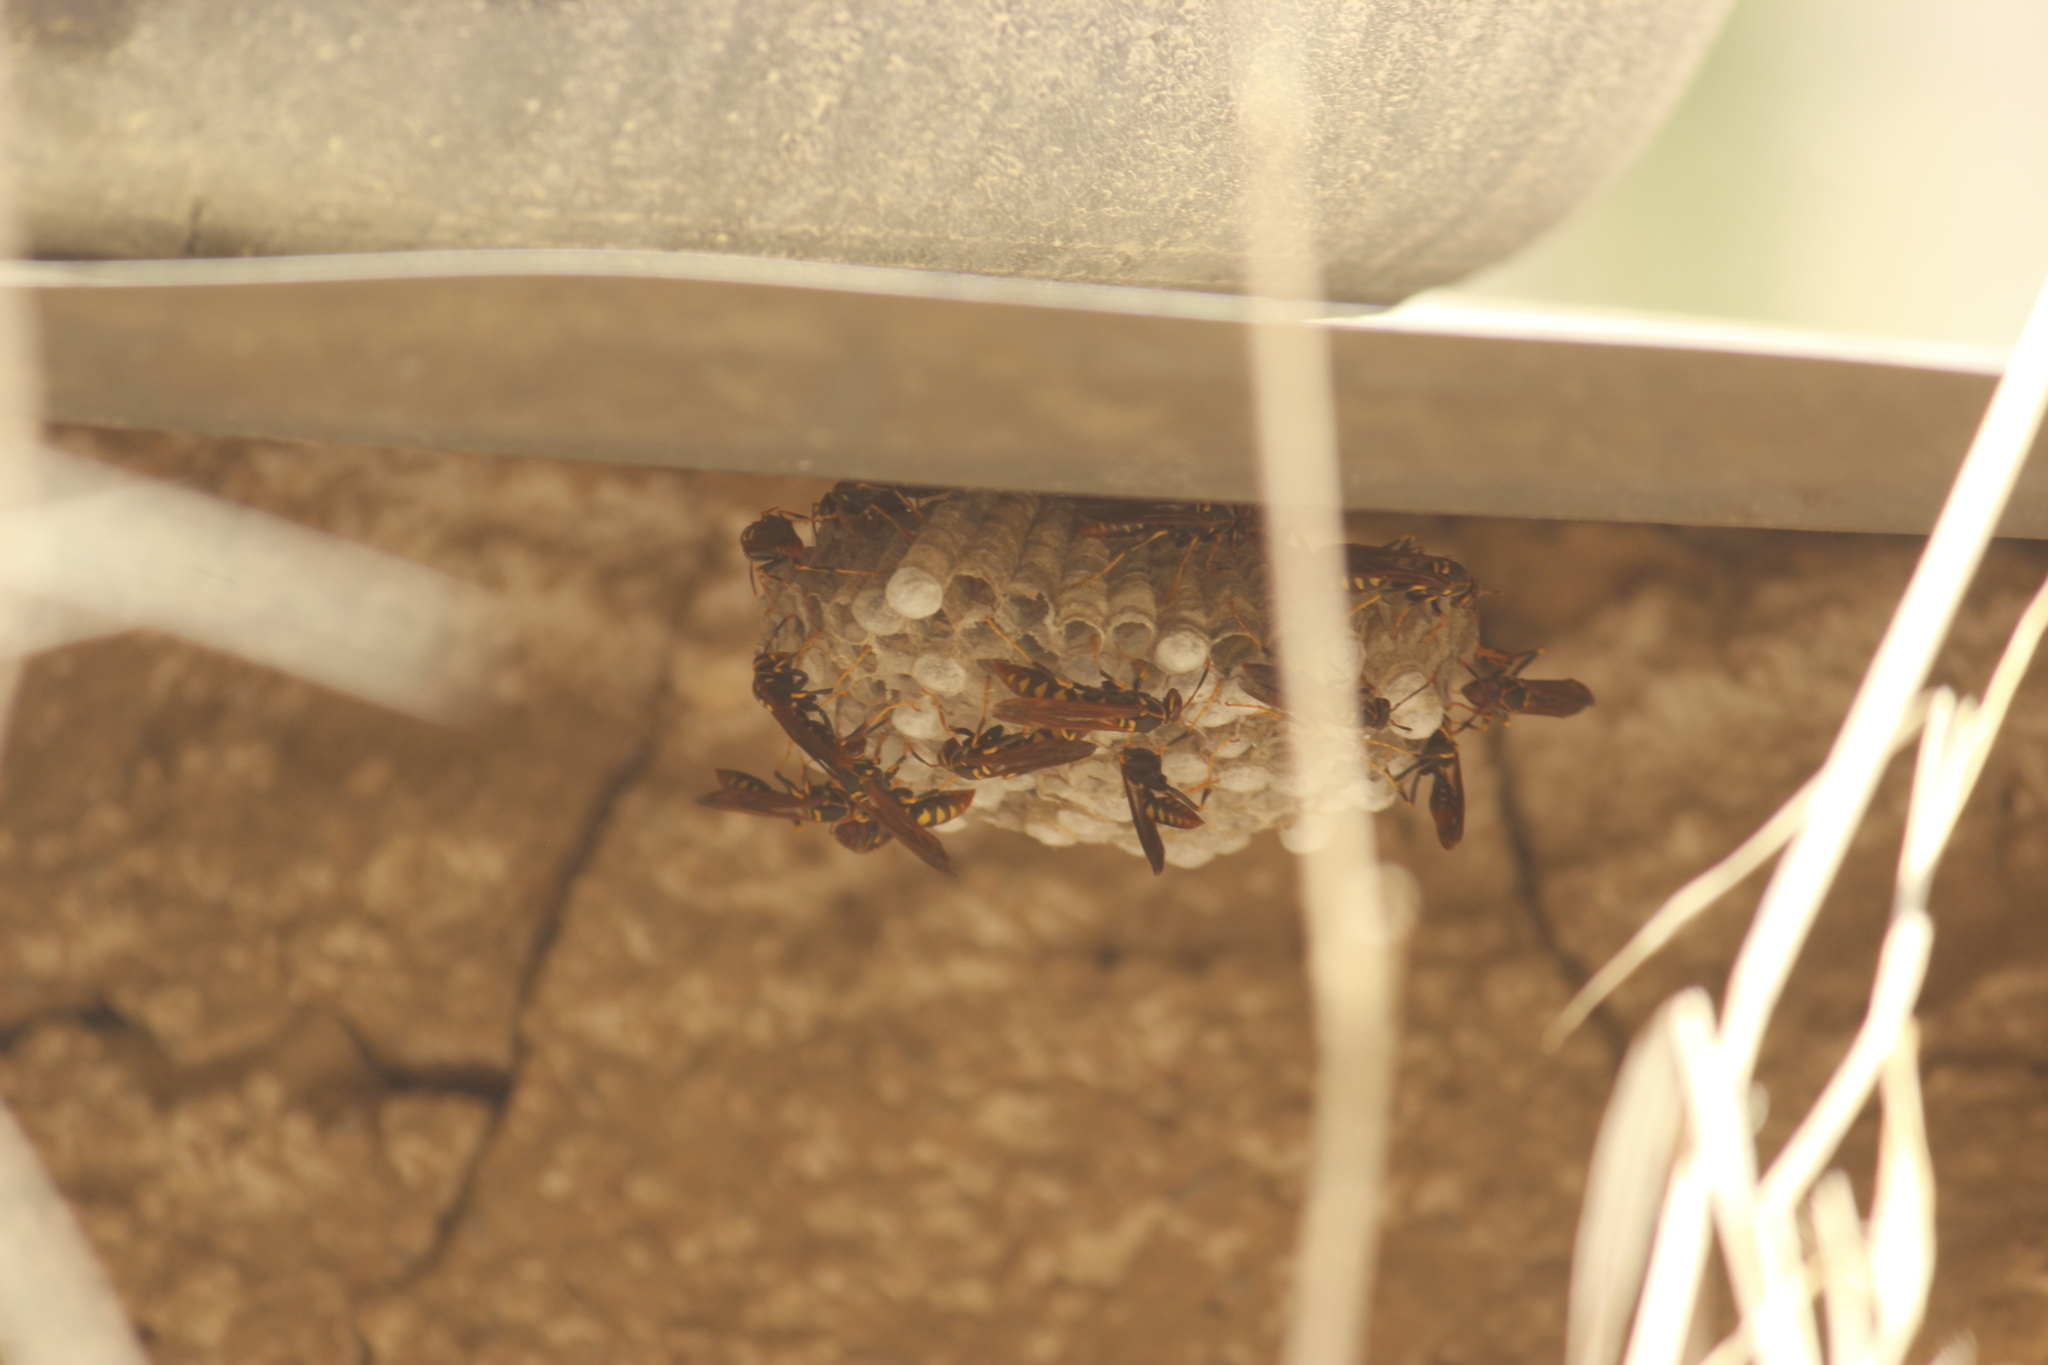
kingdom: Animalia
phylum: Arthropoda
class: Insecta
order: Hymenoptera
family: Eumenidae
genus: Polistes
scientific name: Polistes weyrauchorum
